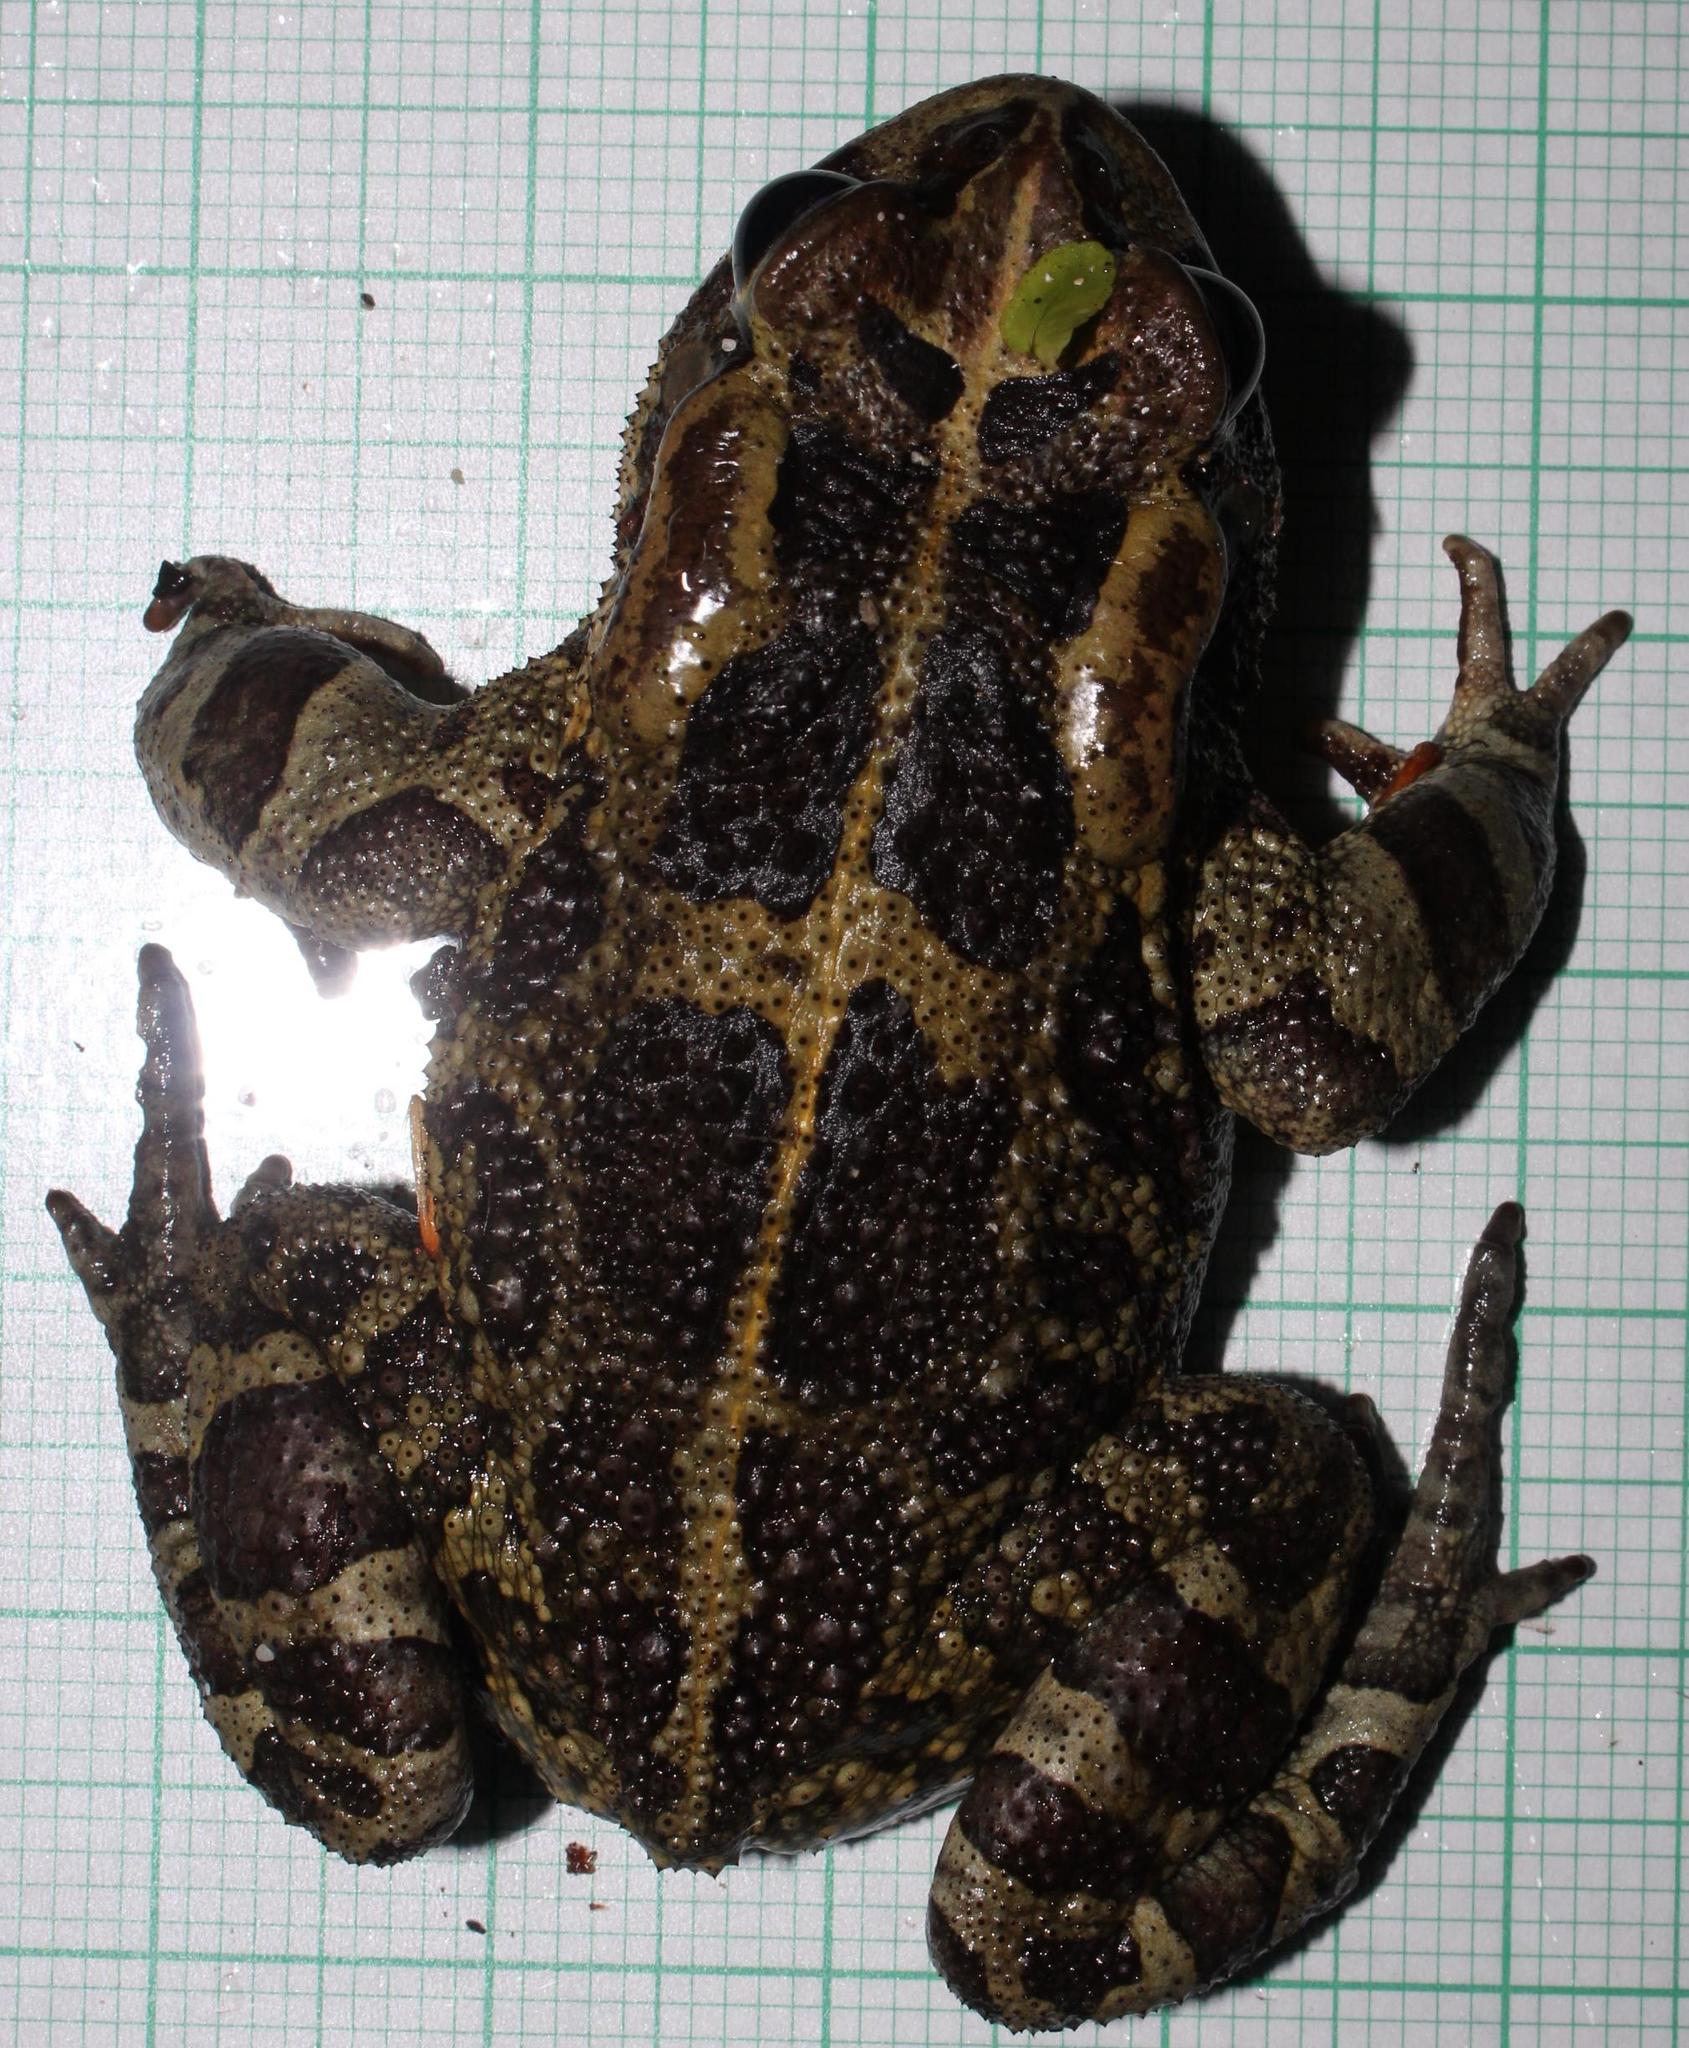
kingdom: Animalia
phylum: Chordata
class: Amphibia
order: Anura
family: Bufonidae
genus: Sclerophrys
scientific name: Sclerophrys pantherina
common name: Panther toad
